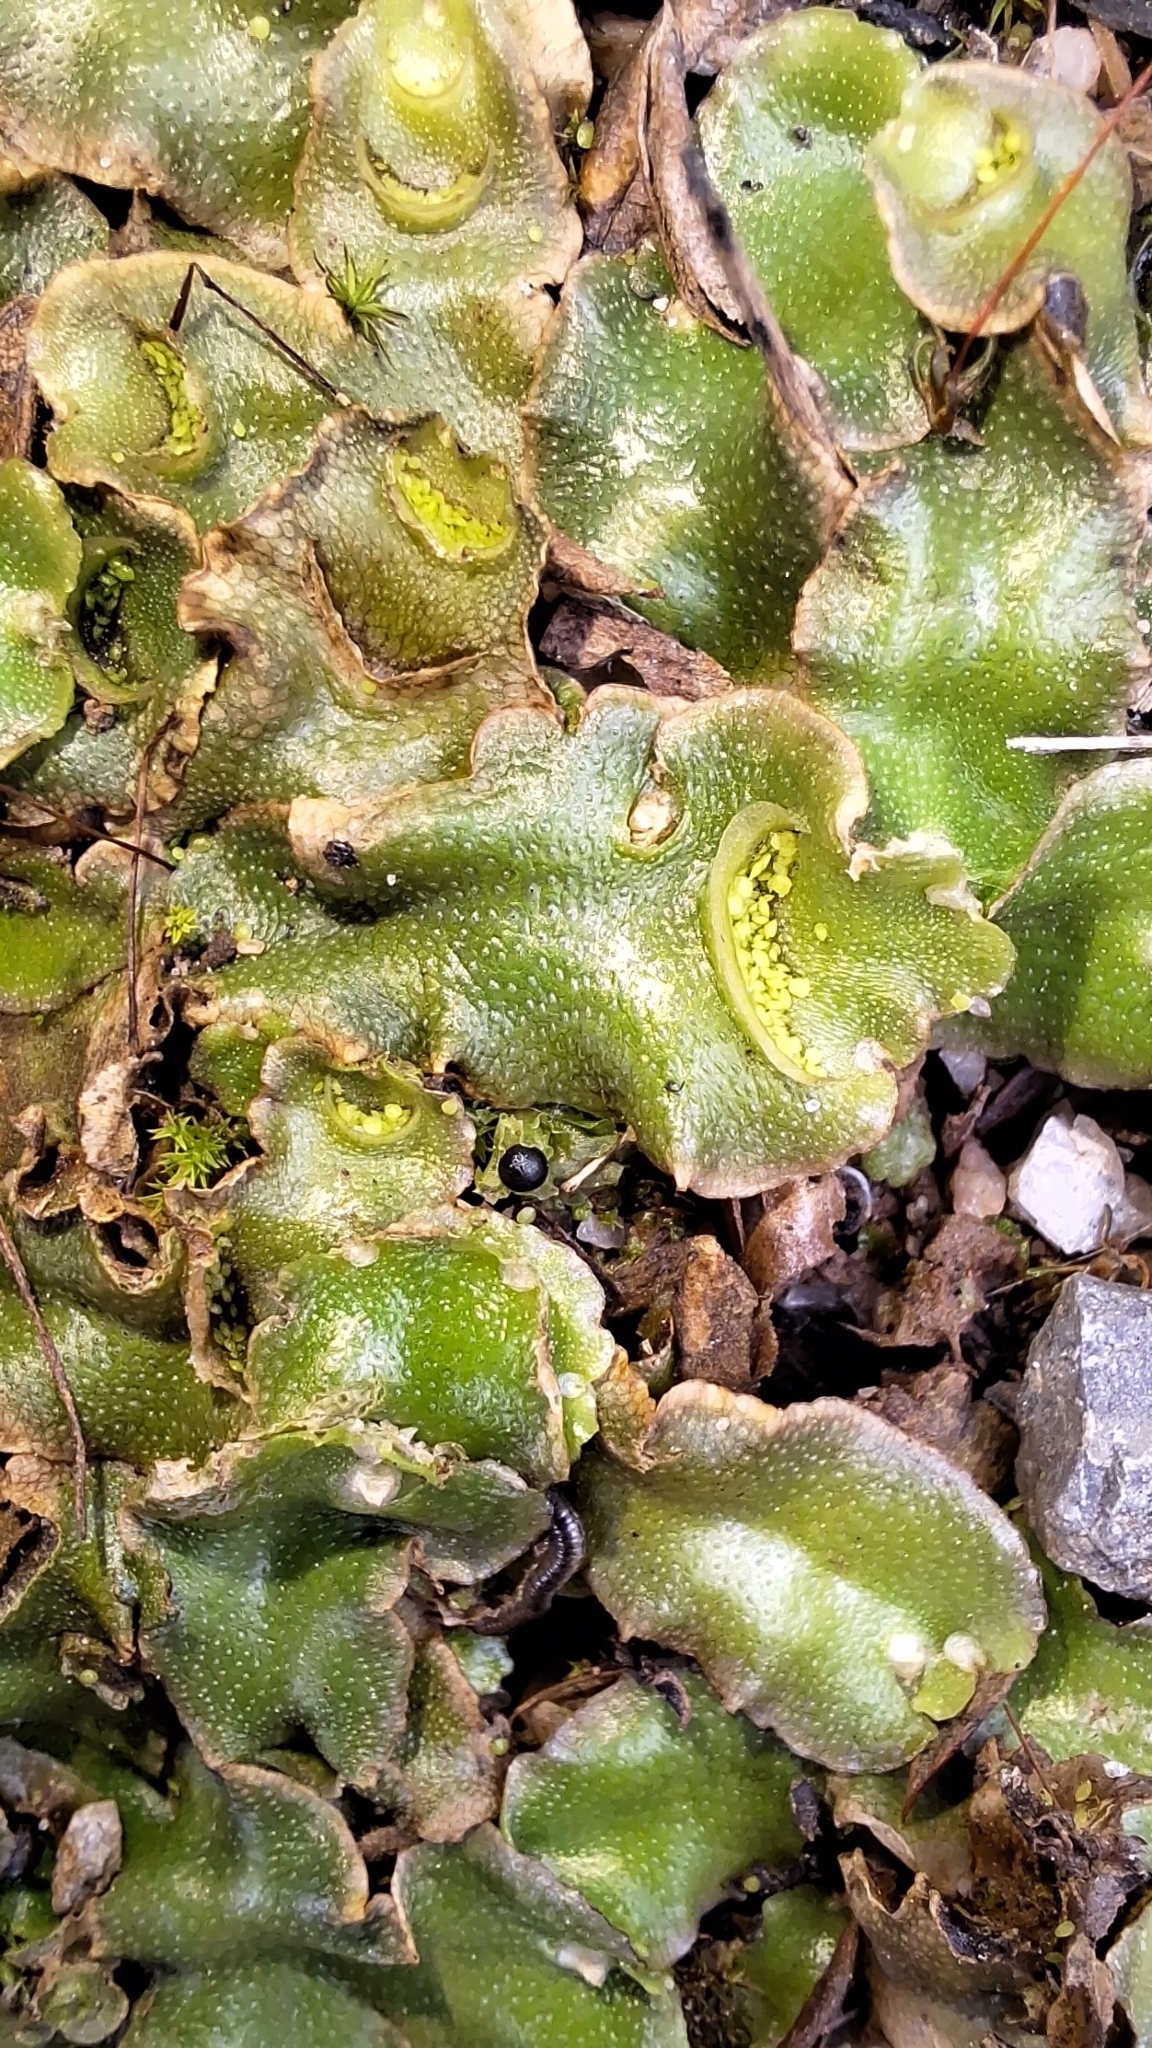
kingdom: Plantae
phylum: Marchantiophyta
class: Marchantiopsida
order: Lunulariales
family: Lunulariaceae
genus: Lunularia
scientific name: Lunularia cruciata
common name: Crescent-cup liverwort
